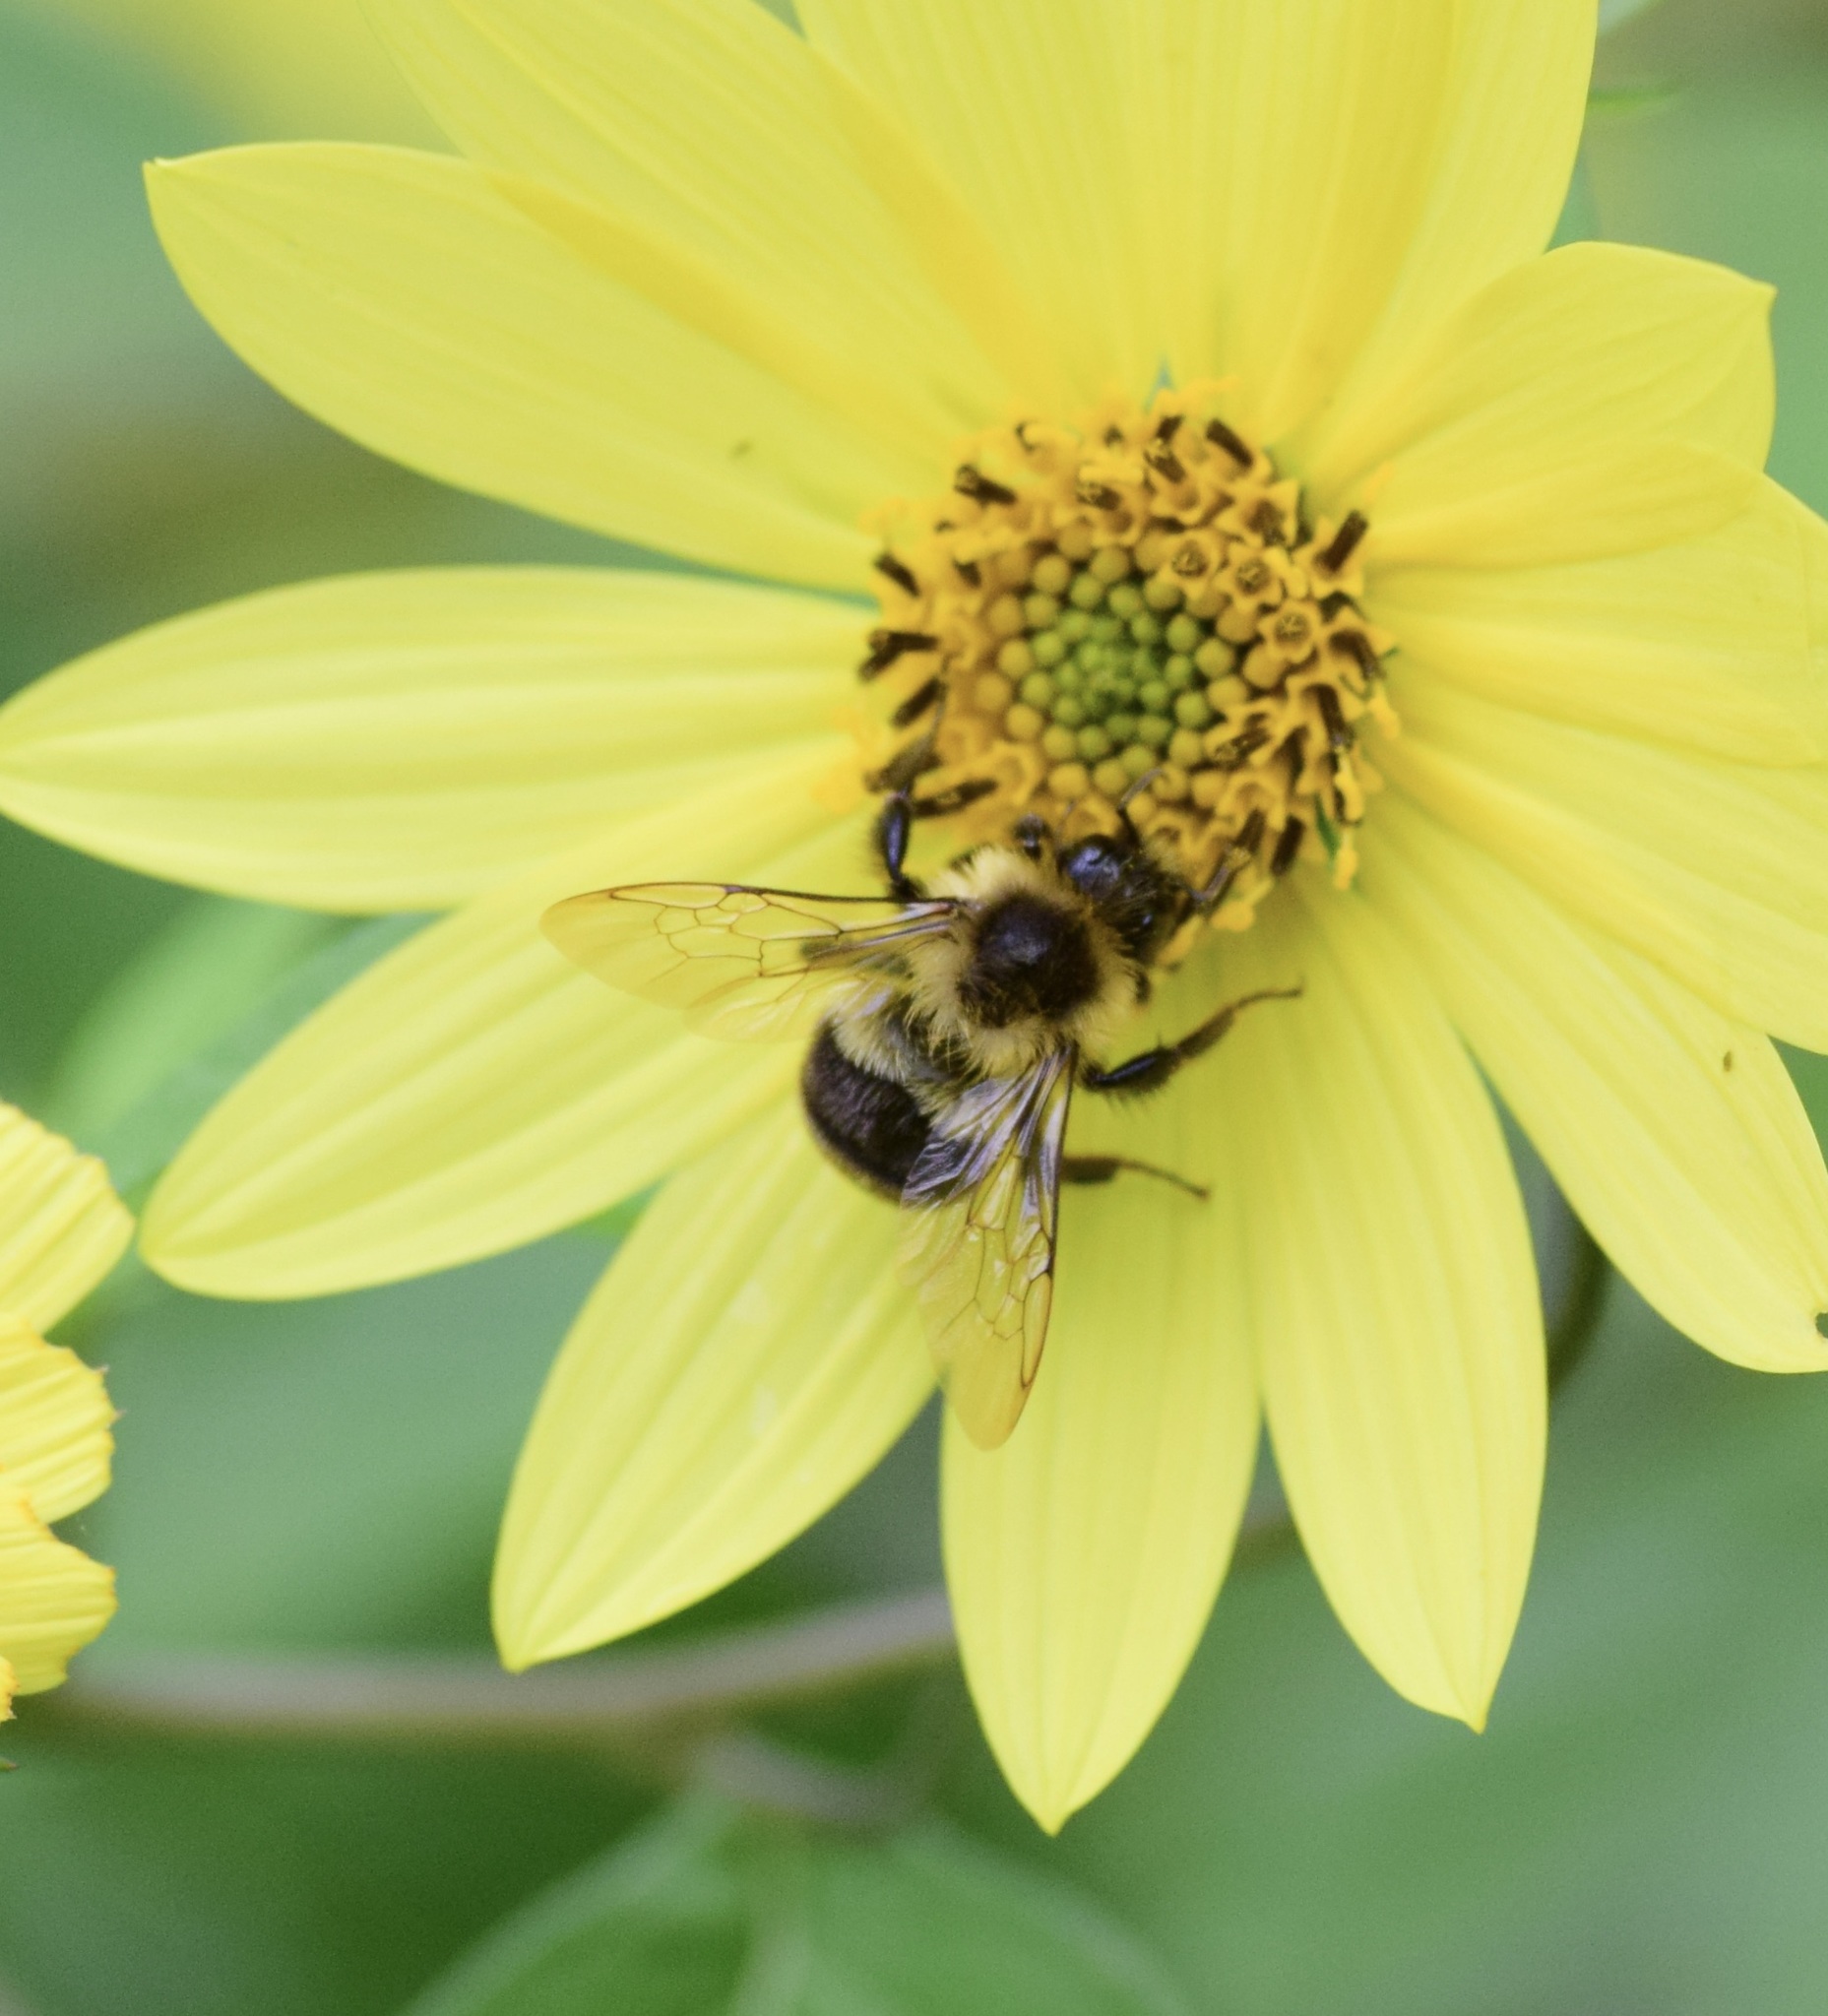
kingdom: Animalia
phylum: Arthropoda
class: Insecta
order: Hymenoptera
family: Apidae
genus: Bombus
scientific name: Bombus impatiens
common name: Common eastern bumble bee
